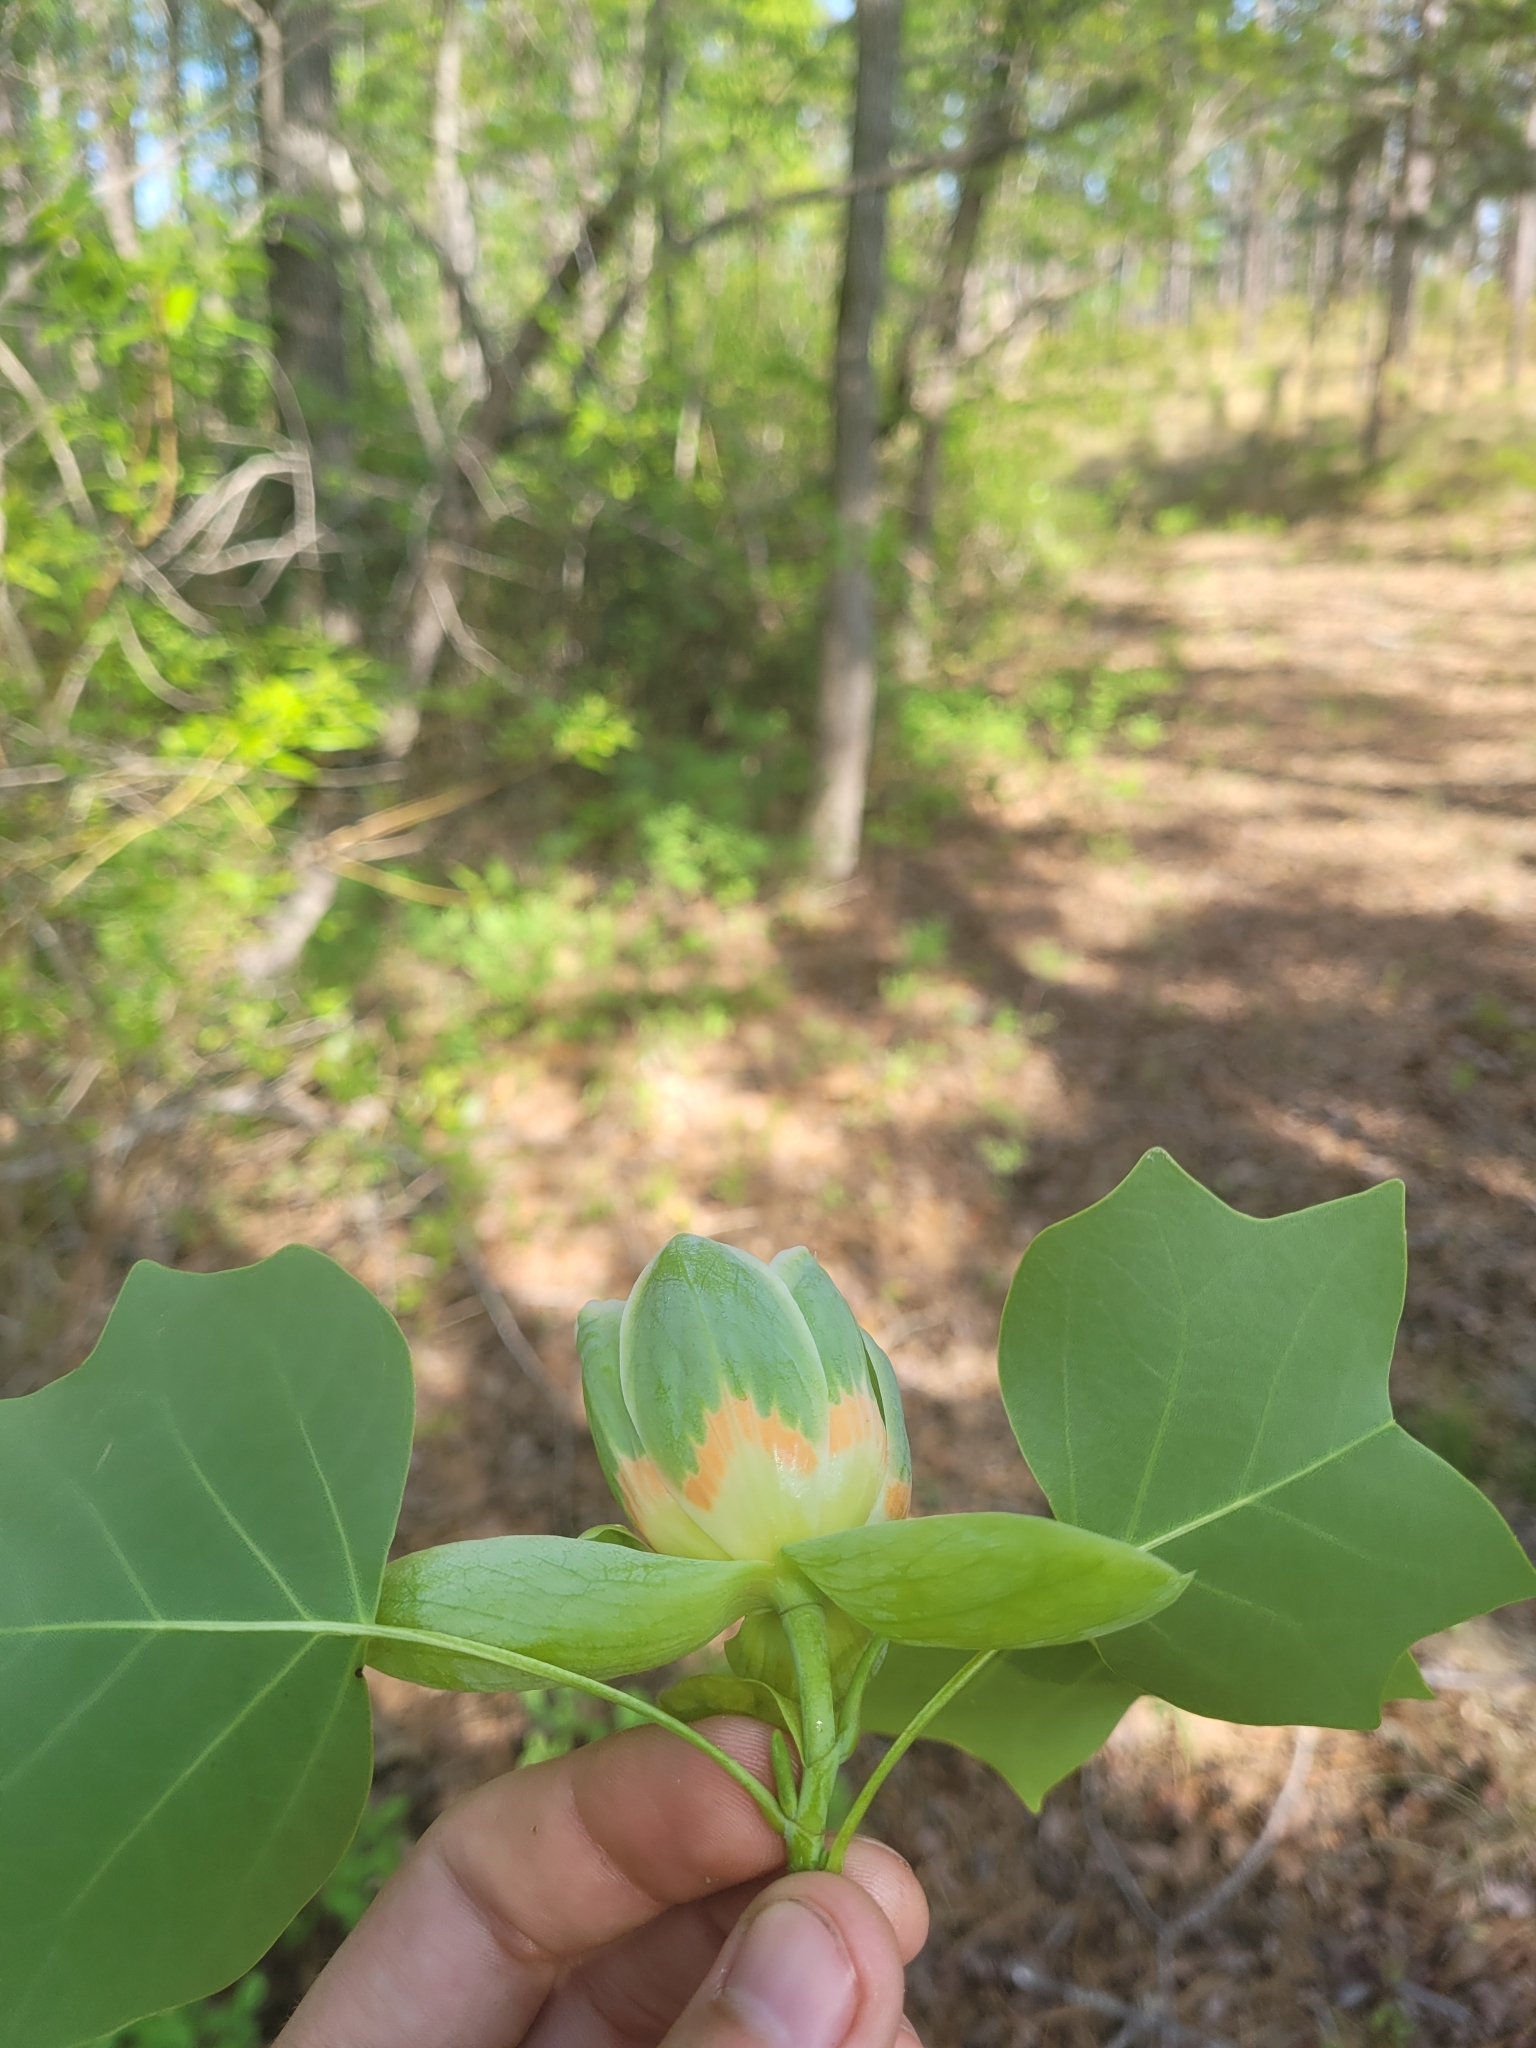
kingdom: Plantae
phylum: Tracheophyta
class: Magnoliopsida
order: Magnoliales
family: Magnoliaceae
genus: Liriodendron
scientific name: Liriodendron tulipifera
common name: Tulip tree
